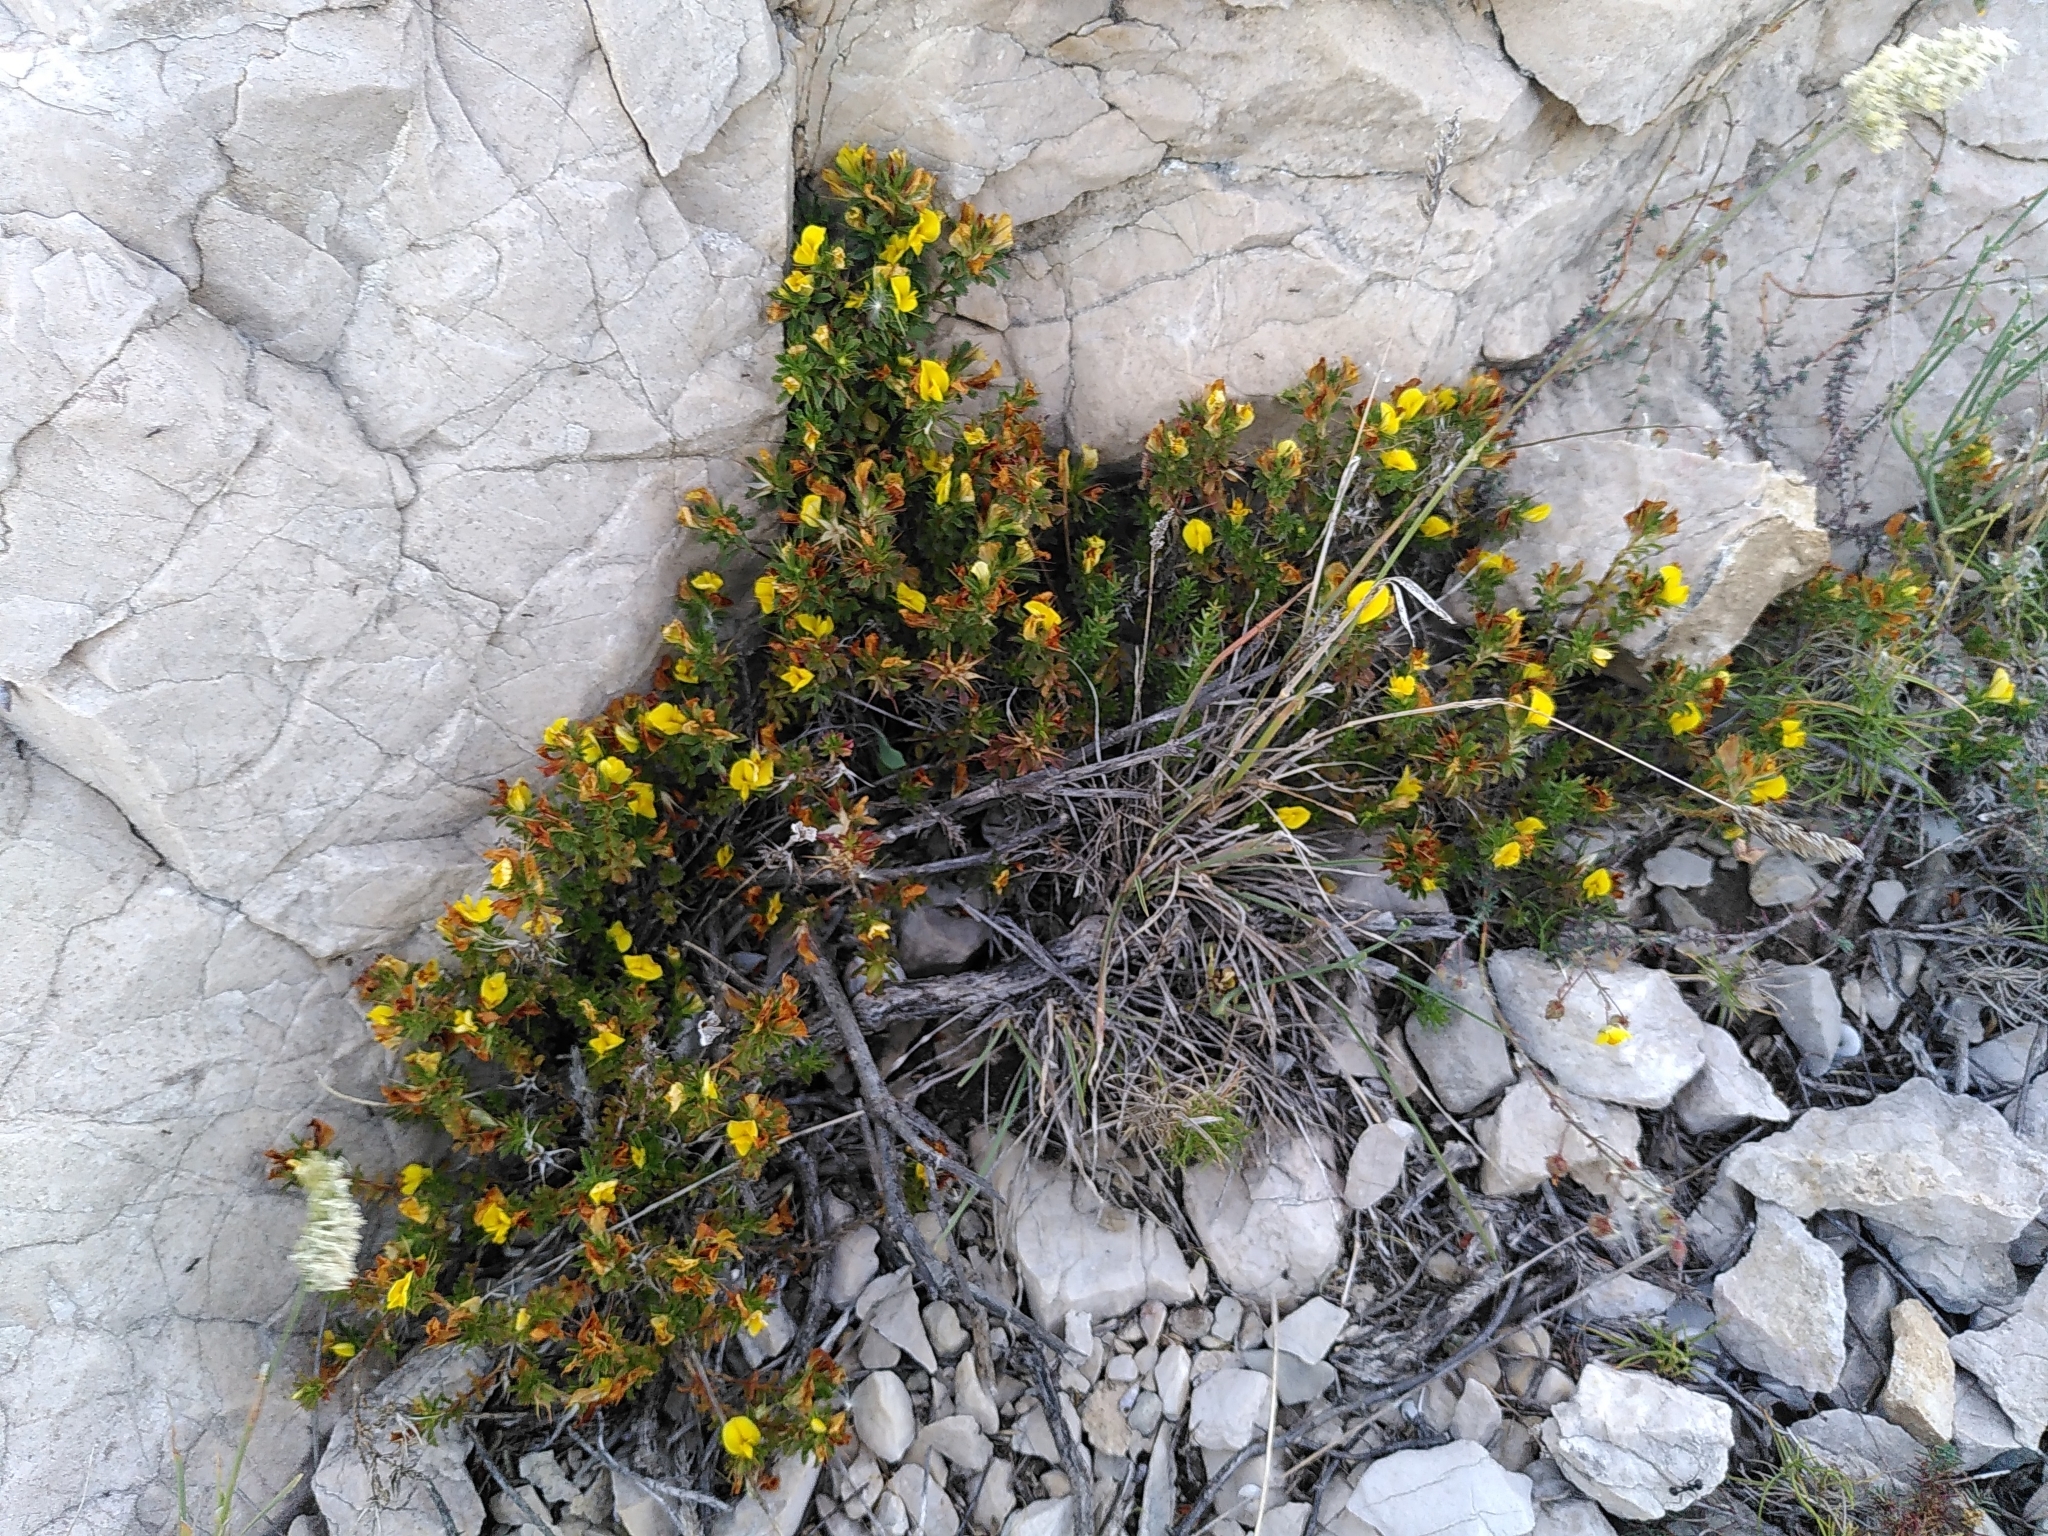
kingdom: Plantae
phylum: Tracheophyta
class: Magnoliopsida
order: Fabales
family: Fabaceae
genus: Ononis
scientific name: Ononis minutissima
